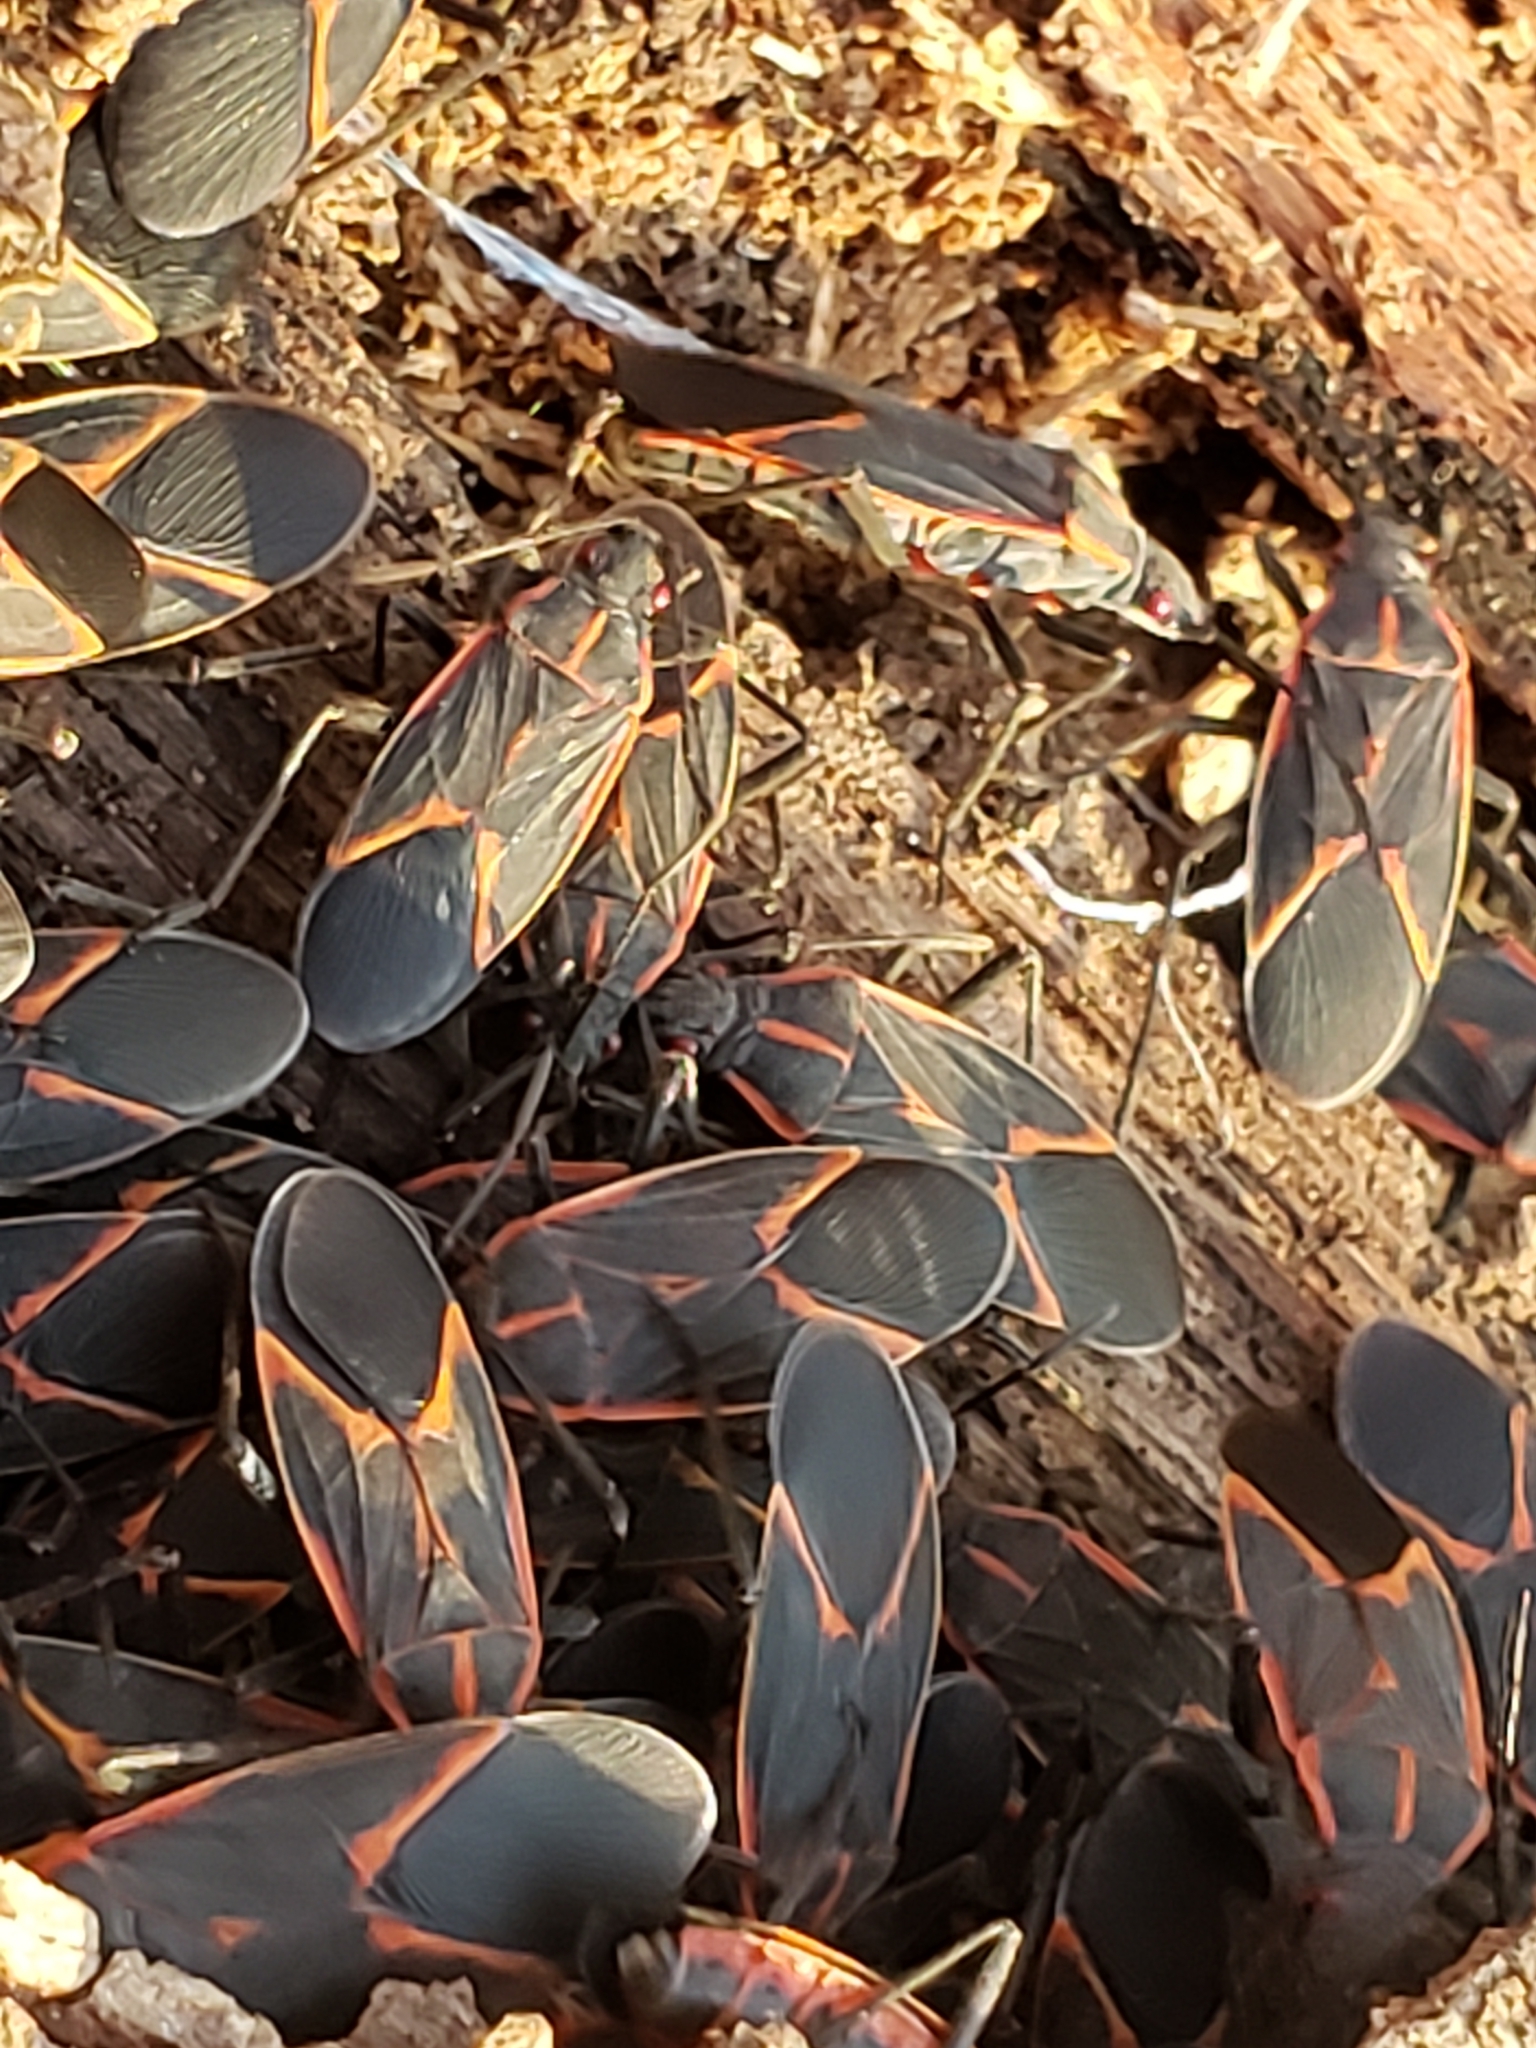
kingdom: Animalia
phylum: Arthropoda
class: Insecta
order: Hemiptera
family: Rhopalidae
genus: Boisea
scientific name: Boisea trivittata
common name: Boxelder bug
